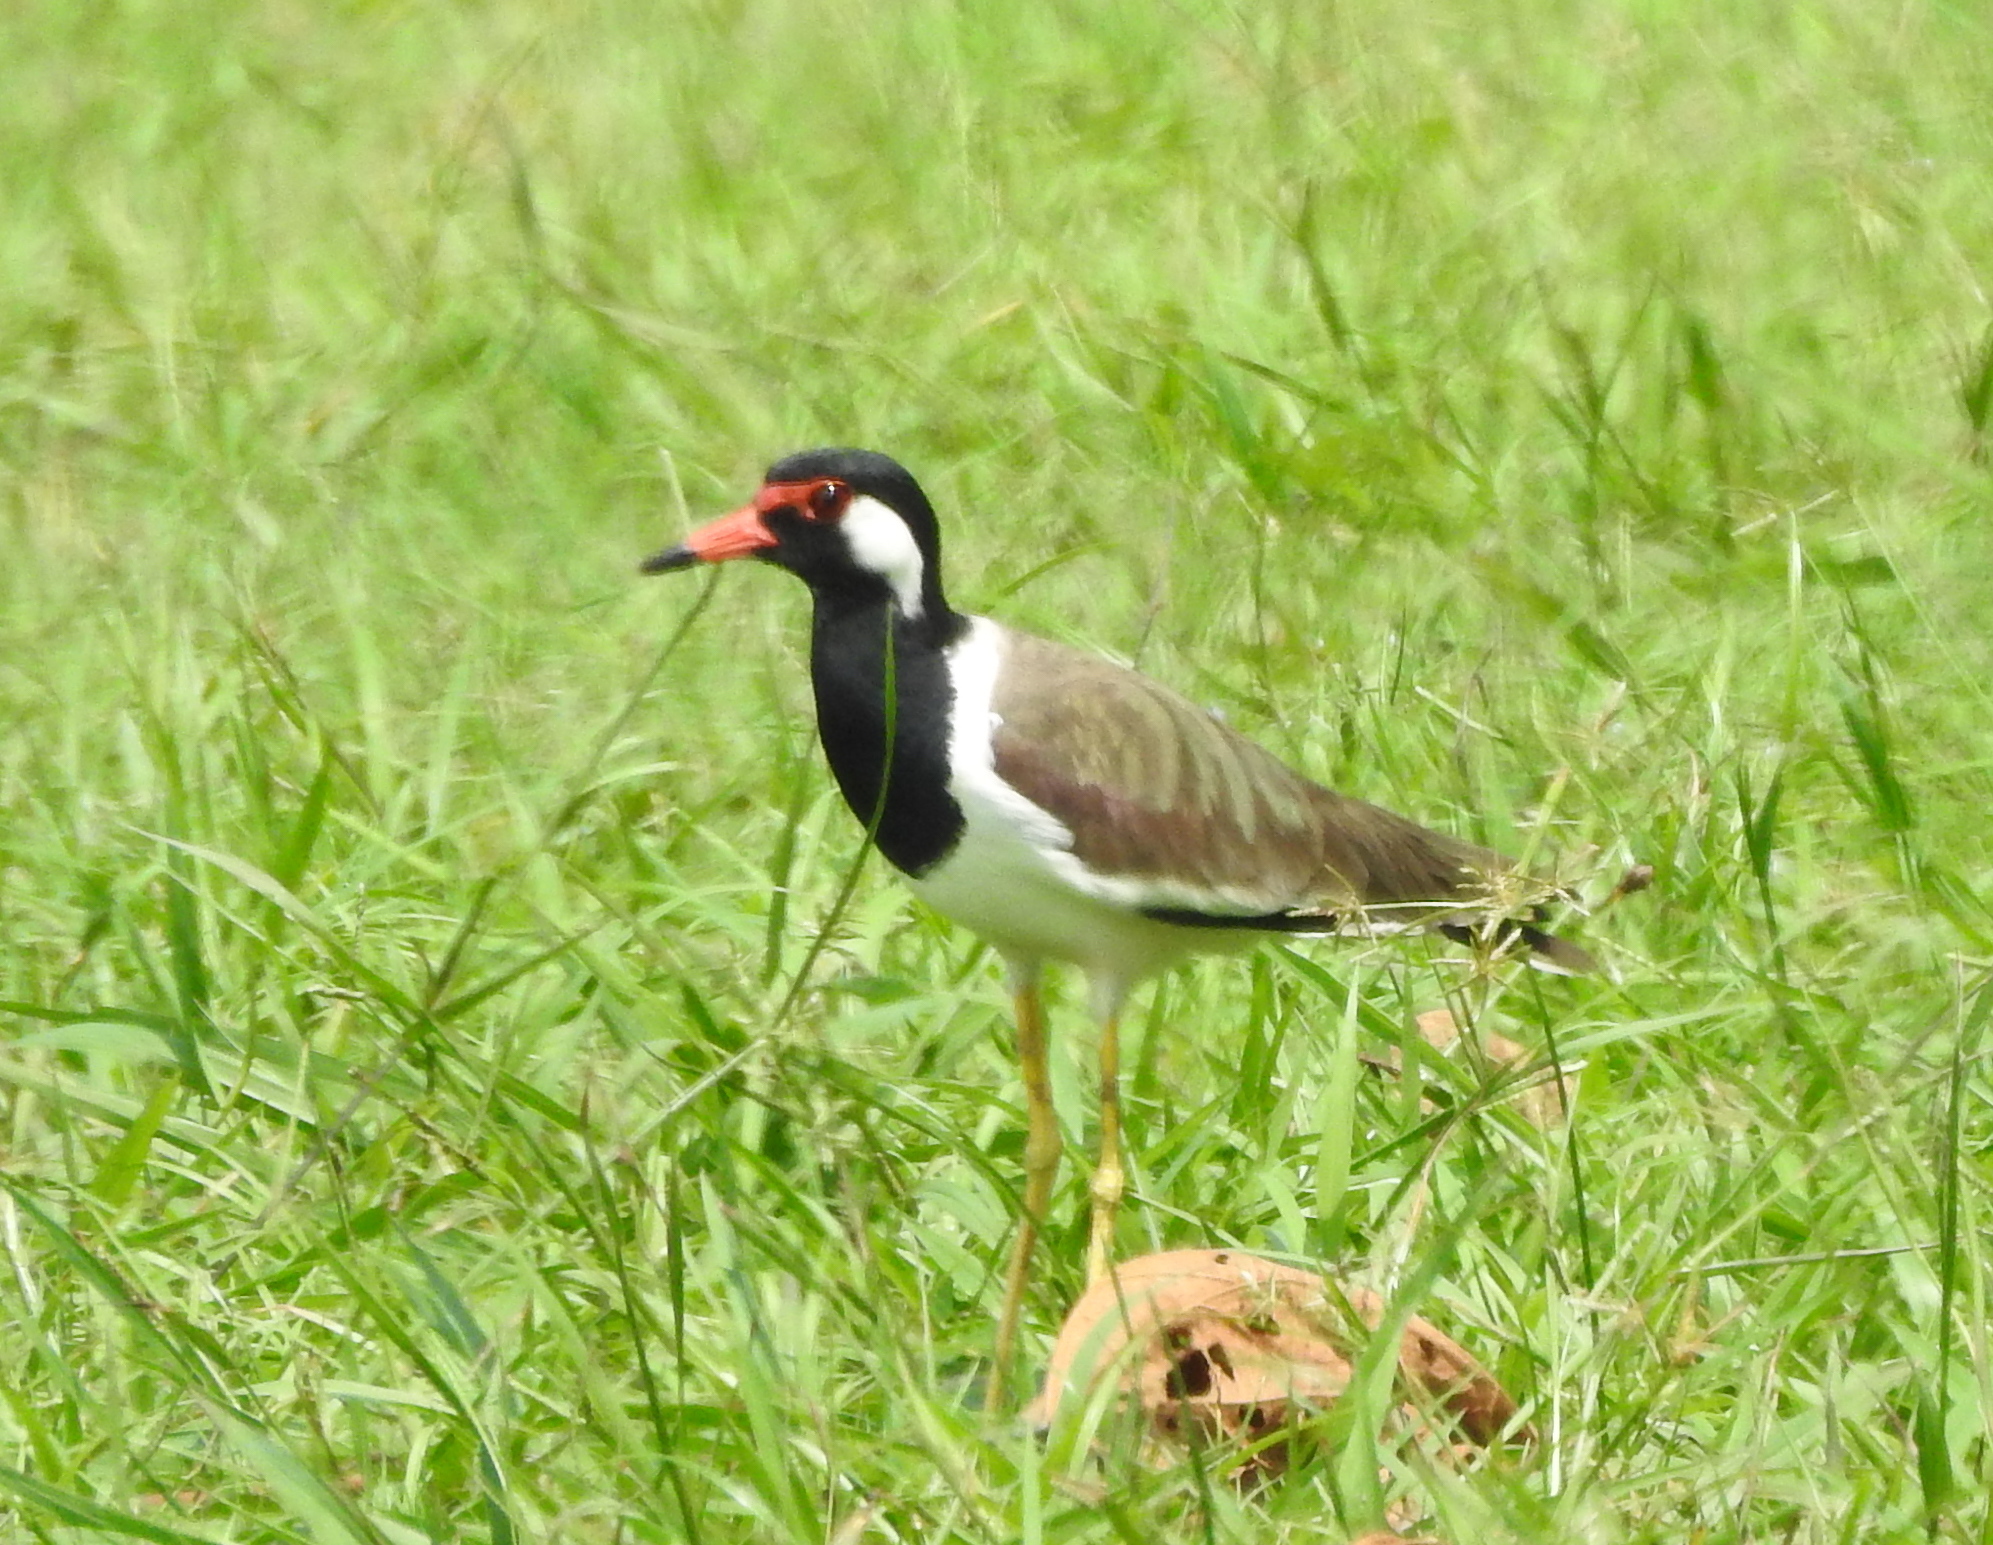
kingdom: Animalia
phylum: Chordata
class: Aves
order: Charadriiformes
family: Charadriidae
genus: Vanellus
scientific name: Vanellus indicus
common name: Red-wattled lapwing
